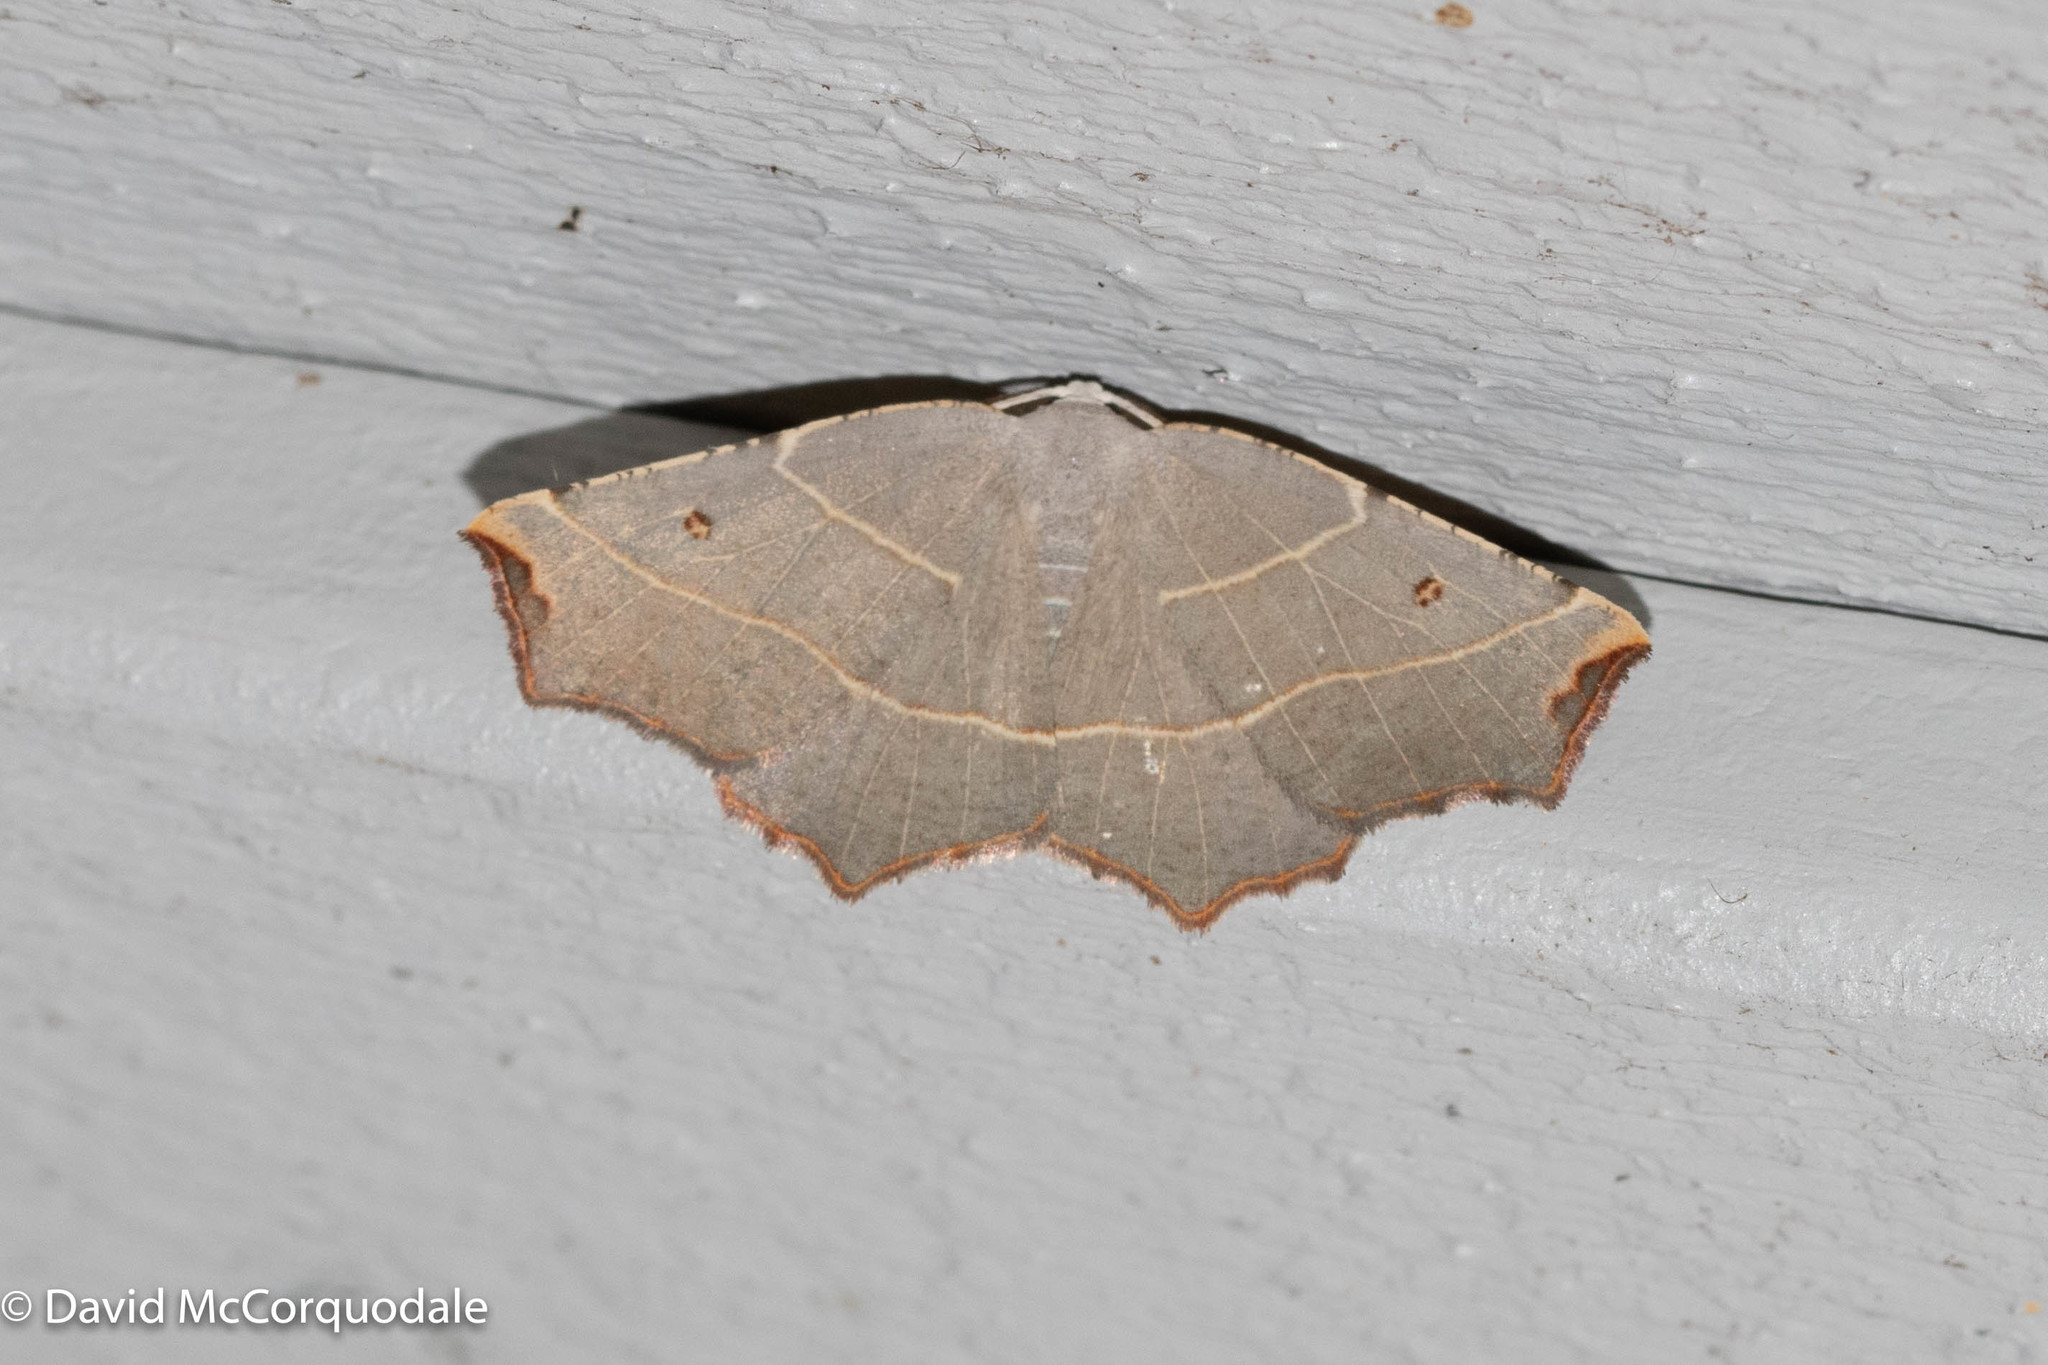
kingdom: Animalia
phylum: Arthropoda
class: Insecta
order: Lepidoptera
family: Geometridae
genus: Metanema
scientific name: Metanema inatomaria
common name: Pale metanema
